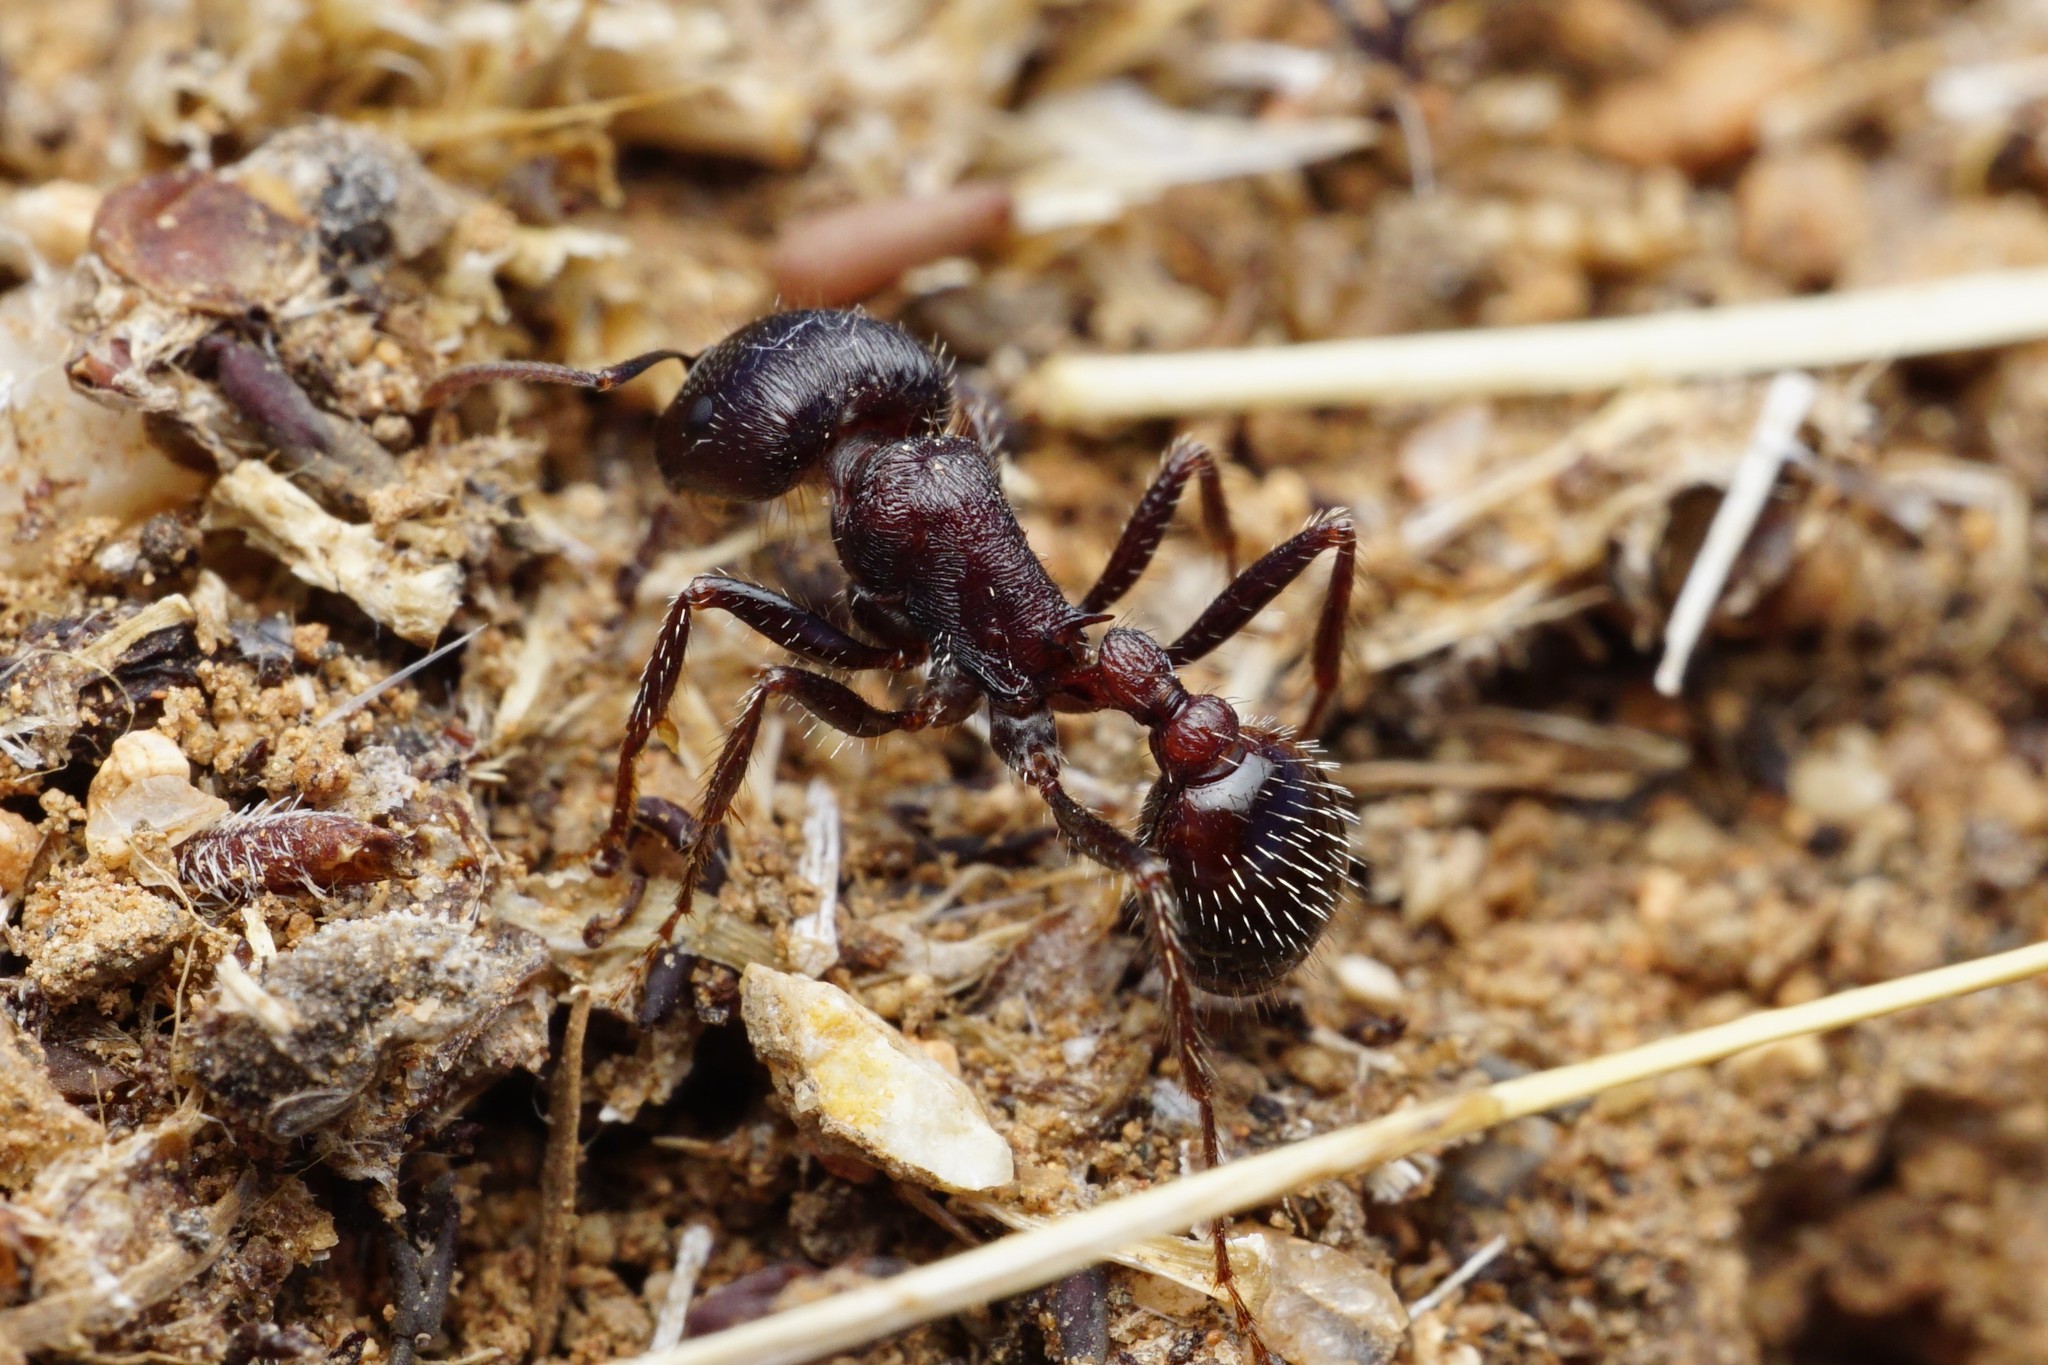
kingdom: Animalia
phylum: Arthropoda
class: Insecta
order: Hymenoptera
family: Formicidae
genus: Pogonomyrmex
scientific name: Pogonomyrmex rugosus
